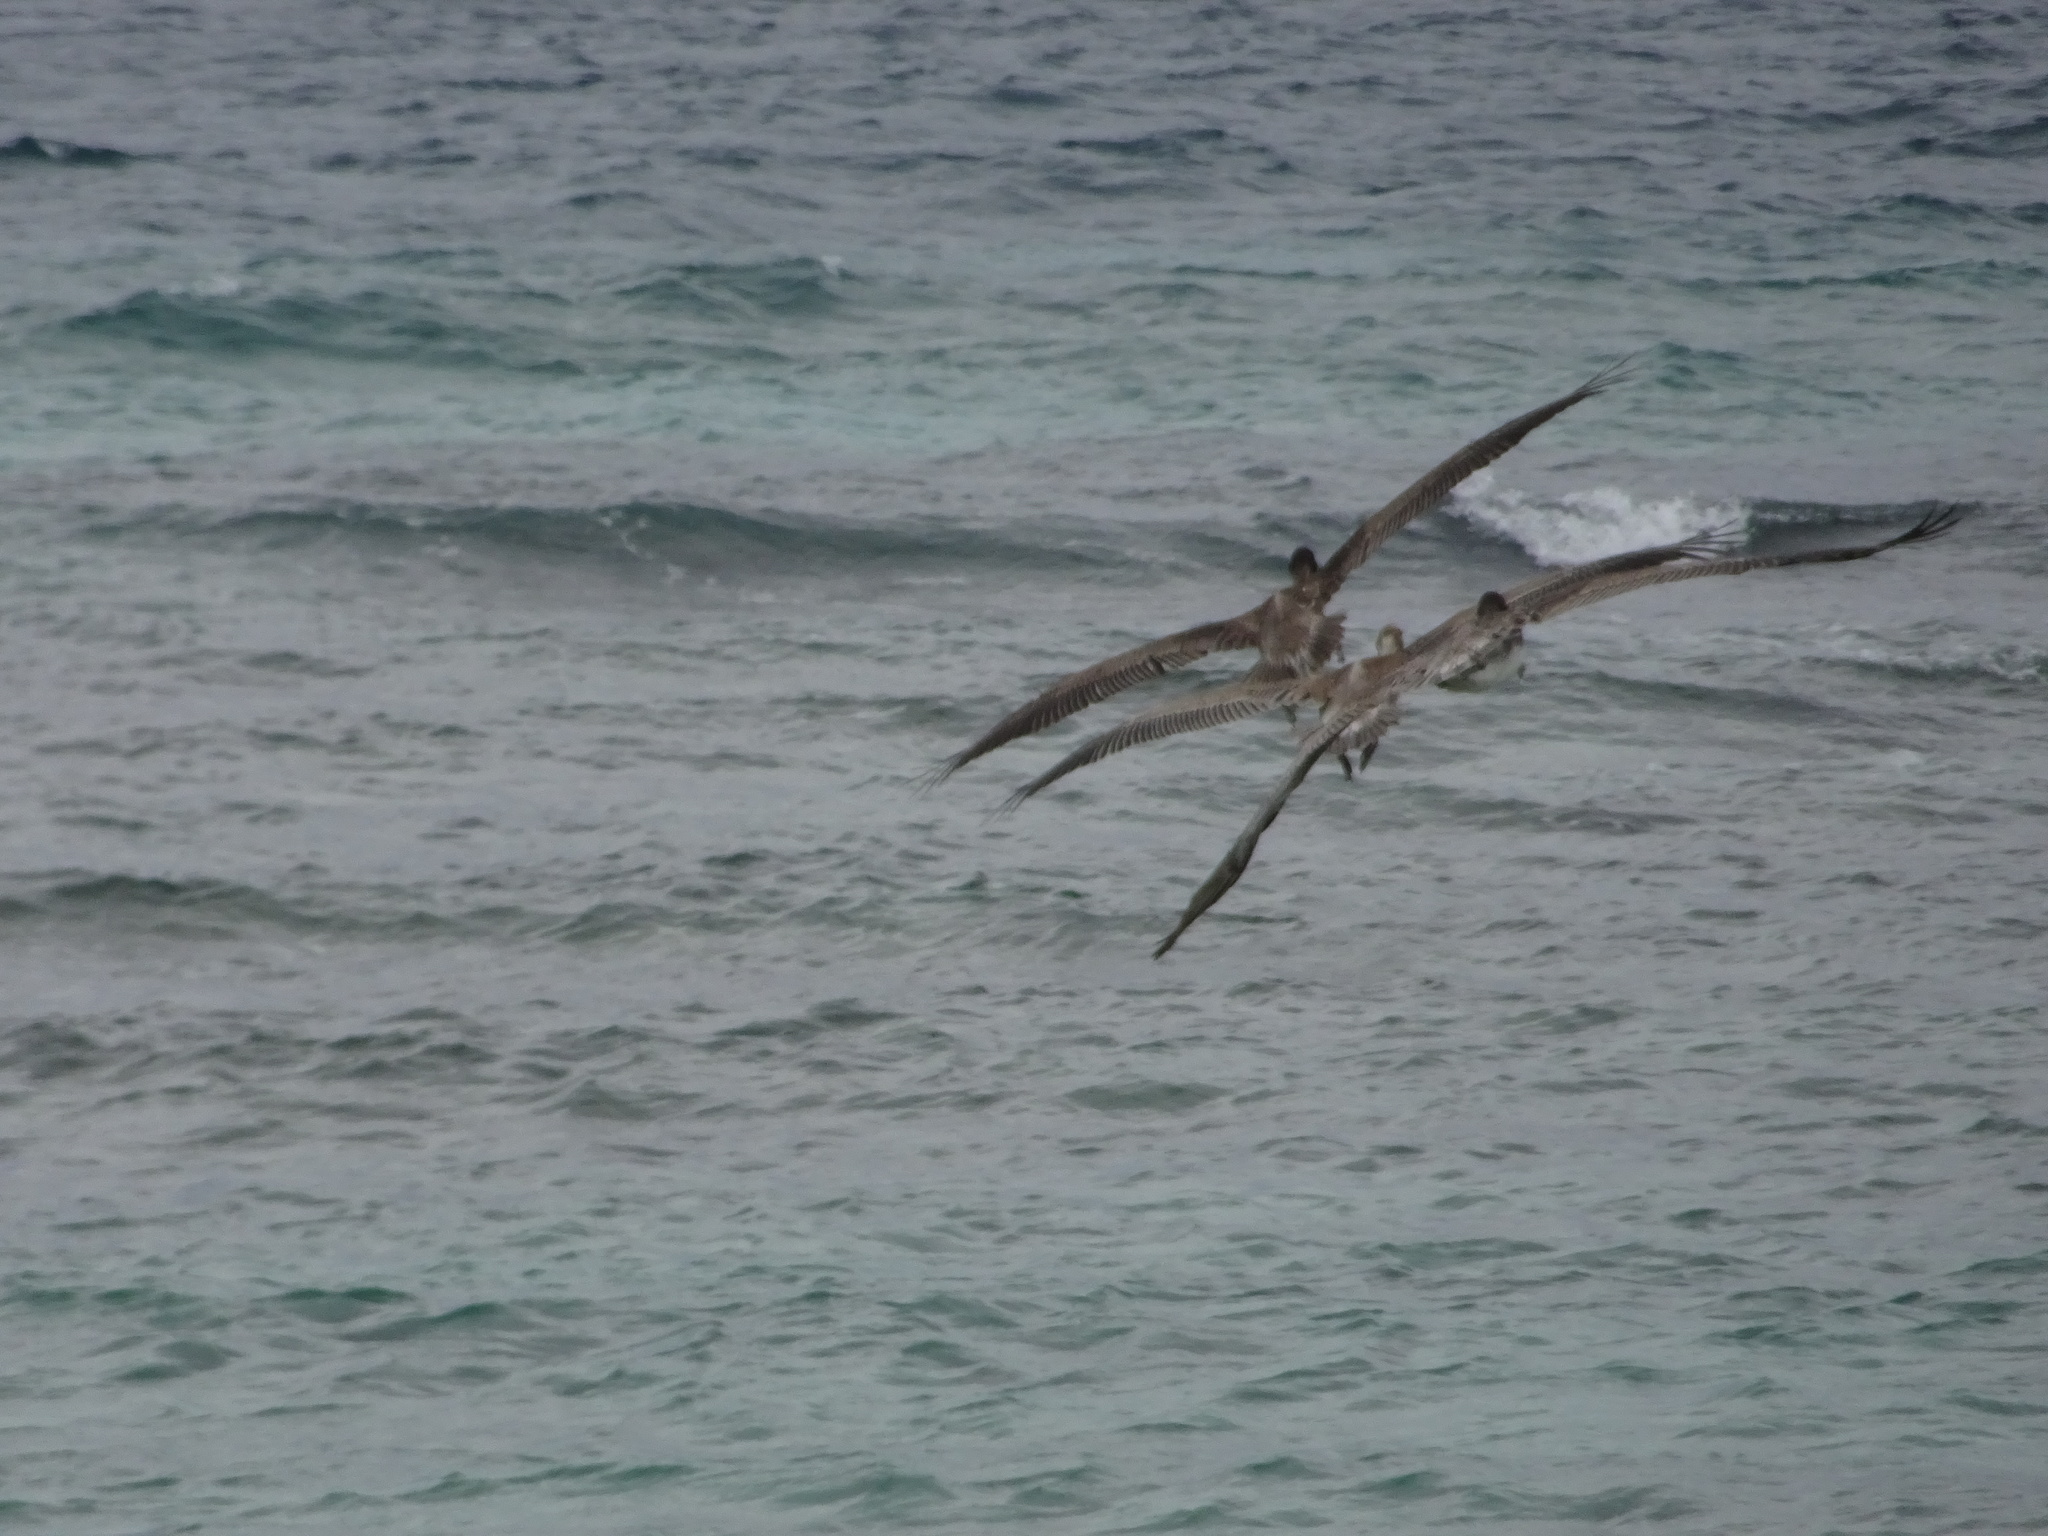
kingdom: Animalia
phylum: Chordata
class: Aves
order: Pelecaniformes
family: Pelecanidae
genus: Pelecanus
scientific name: Pelecanus occidentalis
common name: Brown pelican
